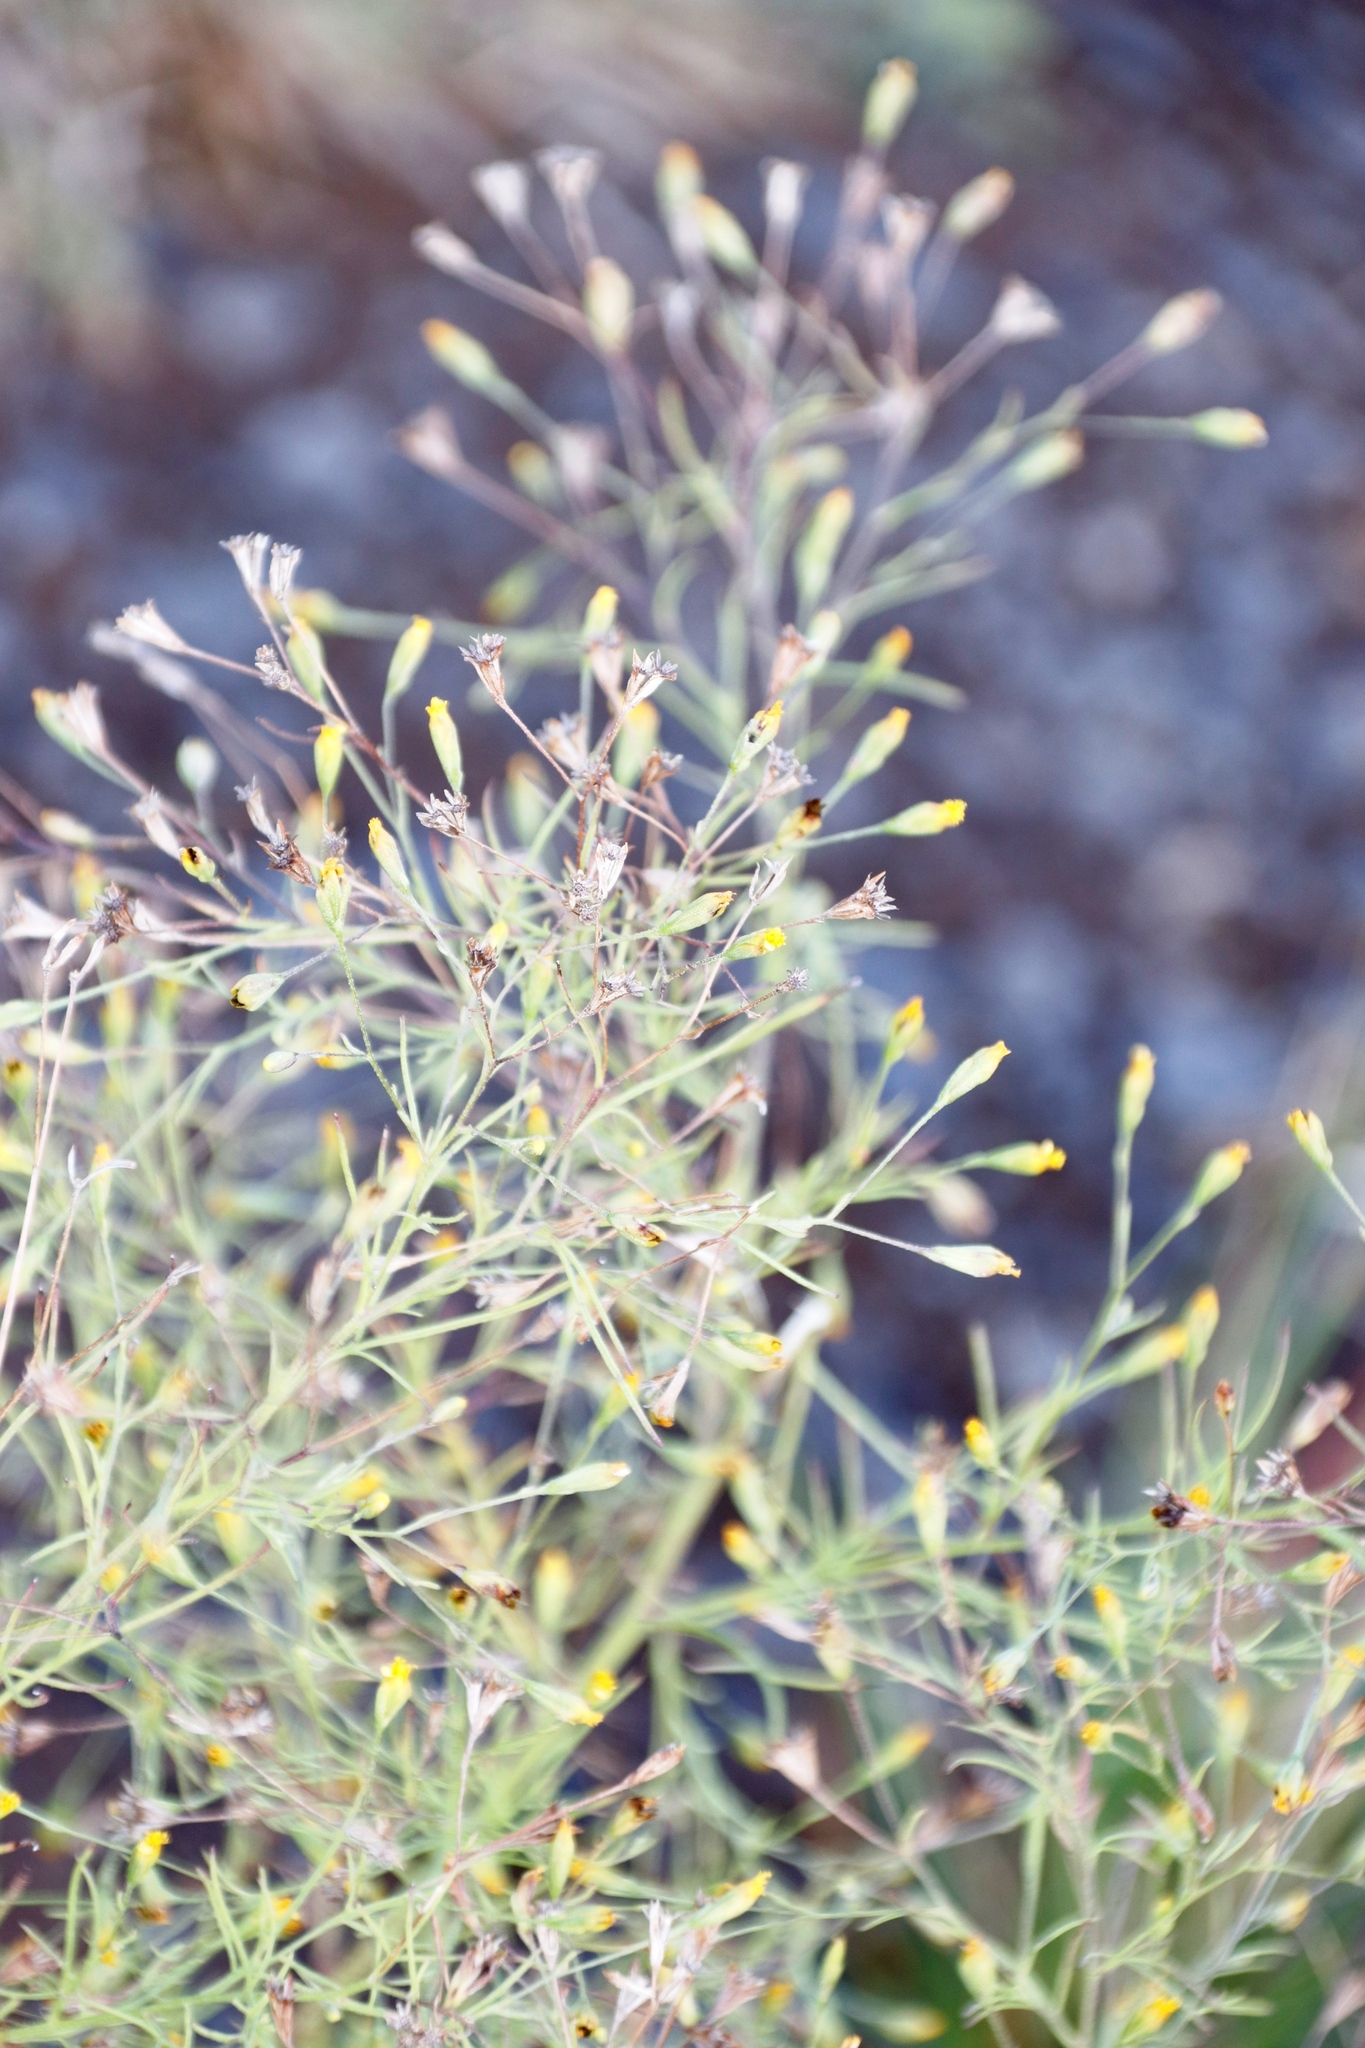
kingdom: Plantae
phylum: Tracheophyta
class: Magnoliopsida
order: Asterales
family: Asteraceae
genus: Schkuhria
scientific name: Schkuhria pinnata
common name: Dwarf marigold
